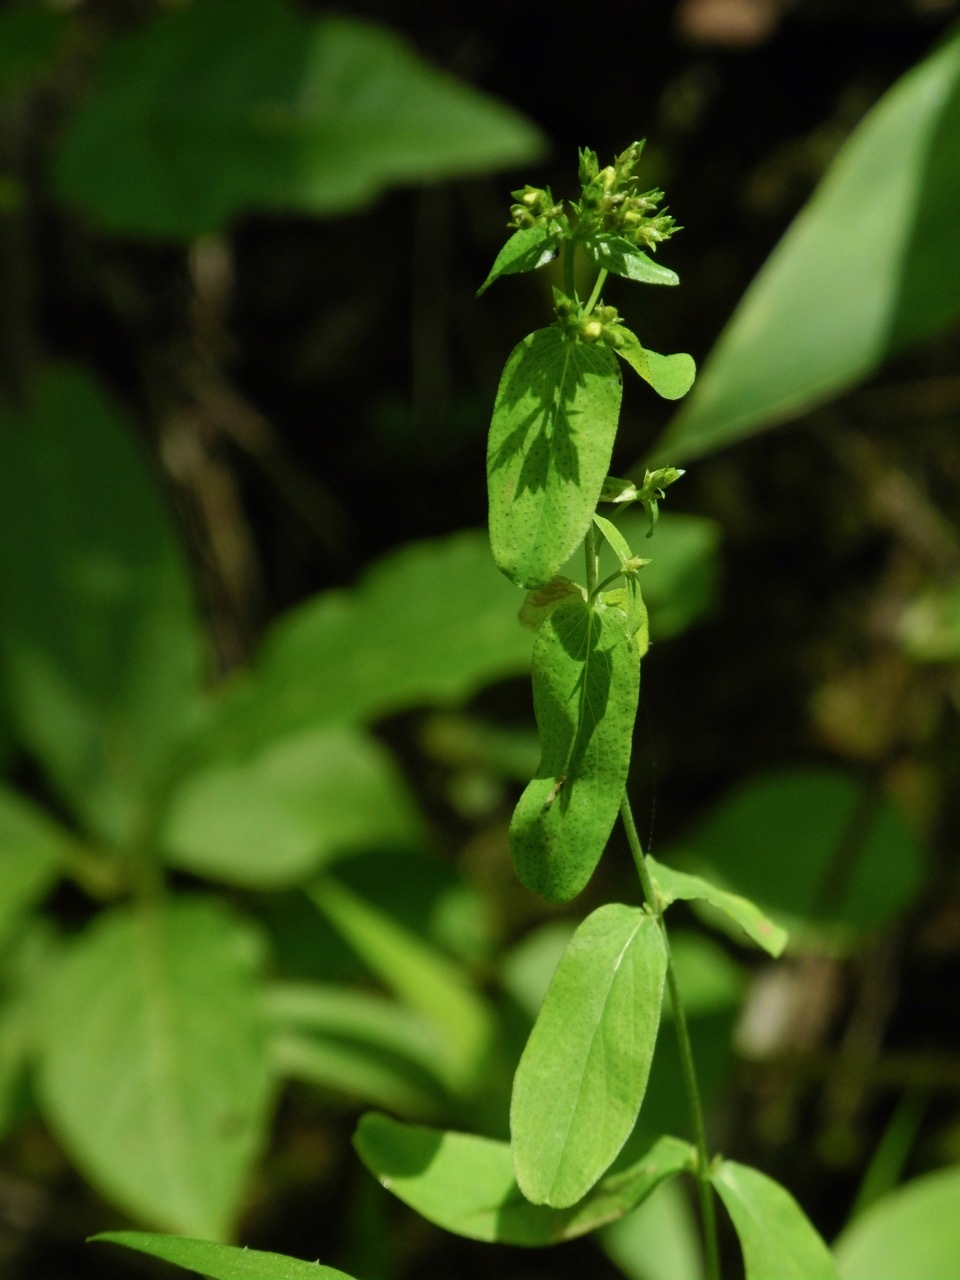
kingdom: Plantae
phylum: Tracheophyta
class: Magnoliopsida
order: Malpighiales
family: Hypericaceae
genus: Hypericum
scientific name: Hypericum punctatum
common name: Spotted st. john's-wort
